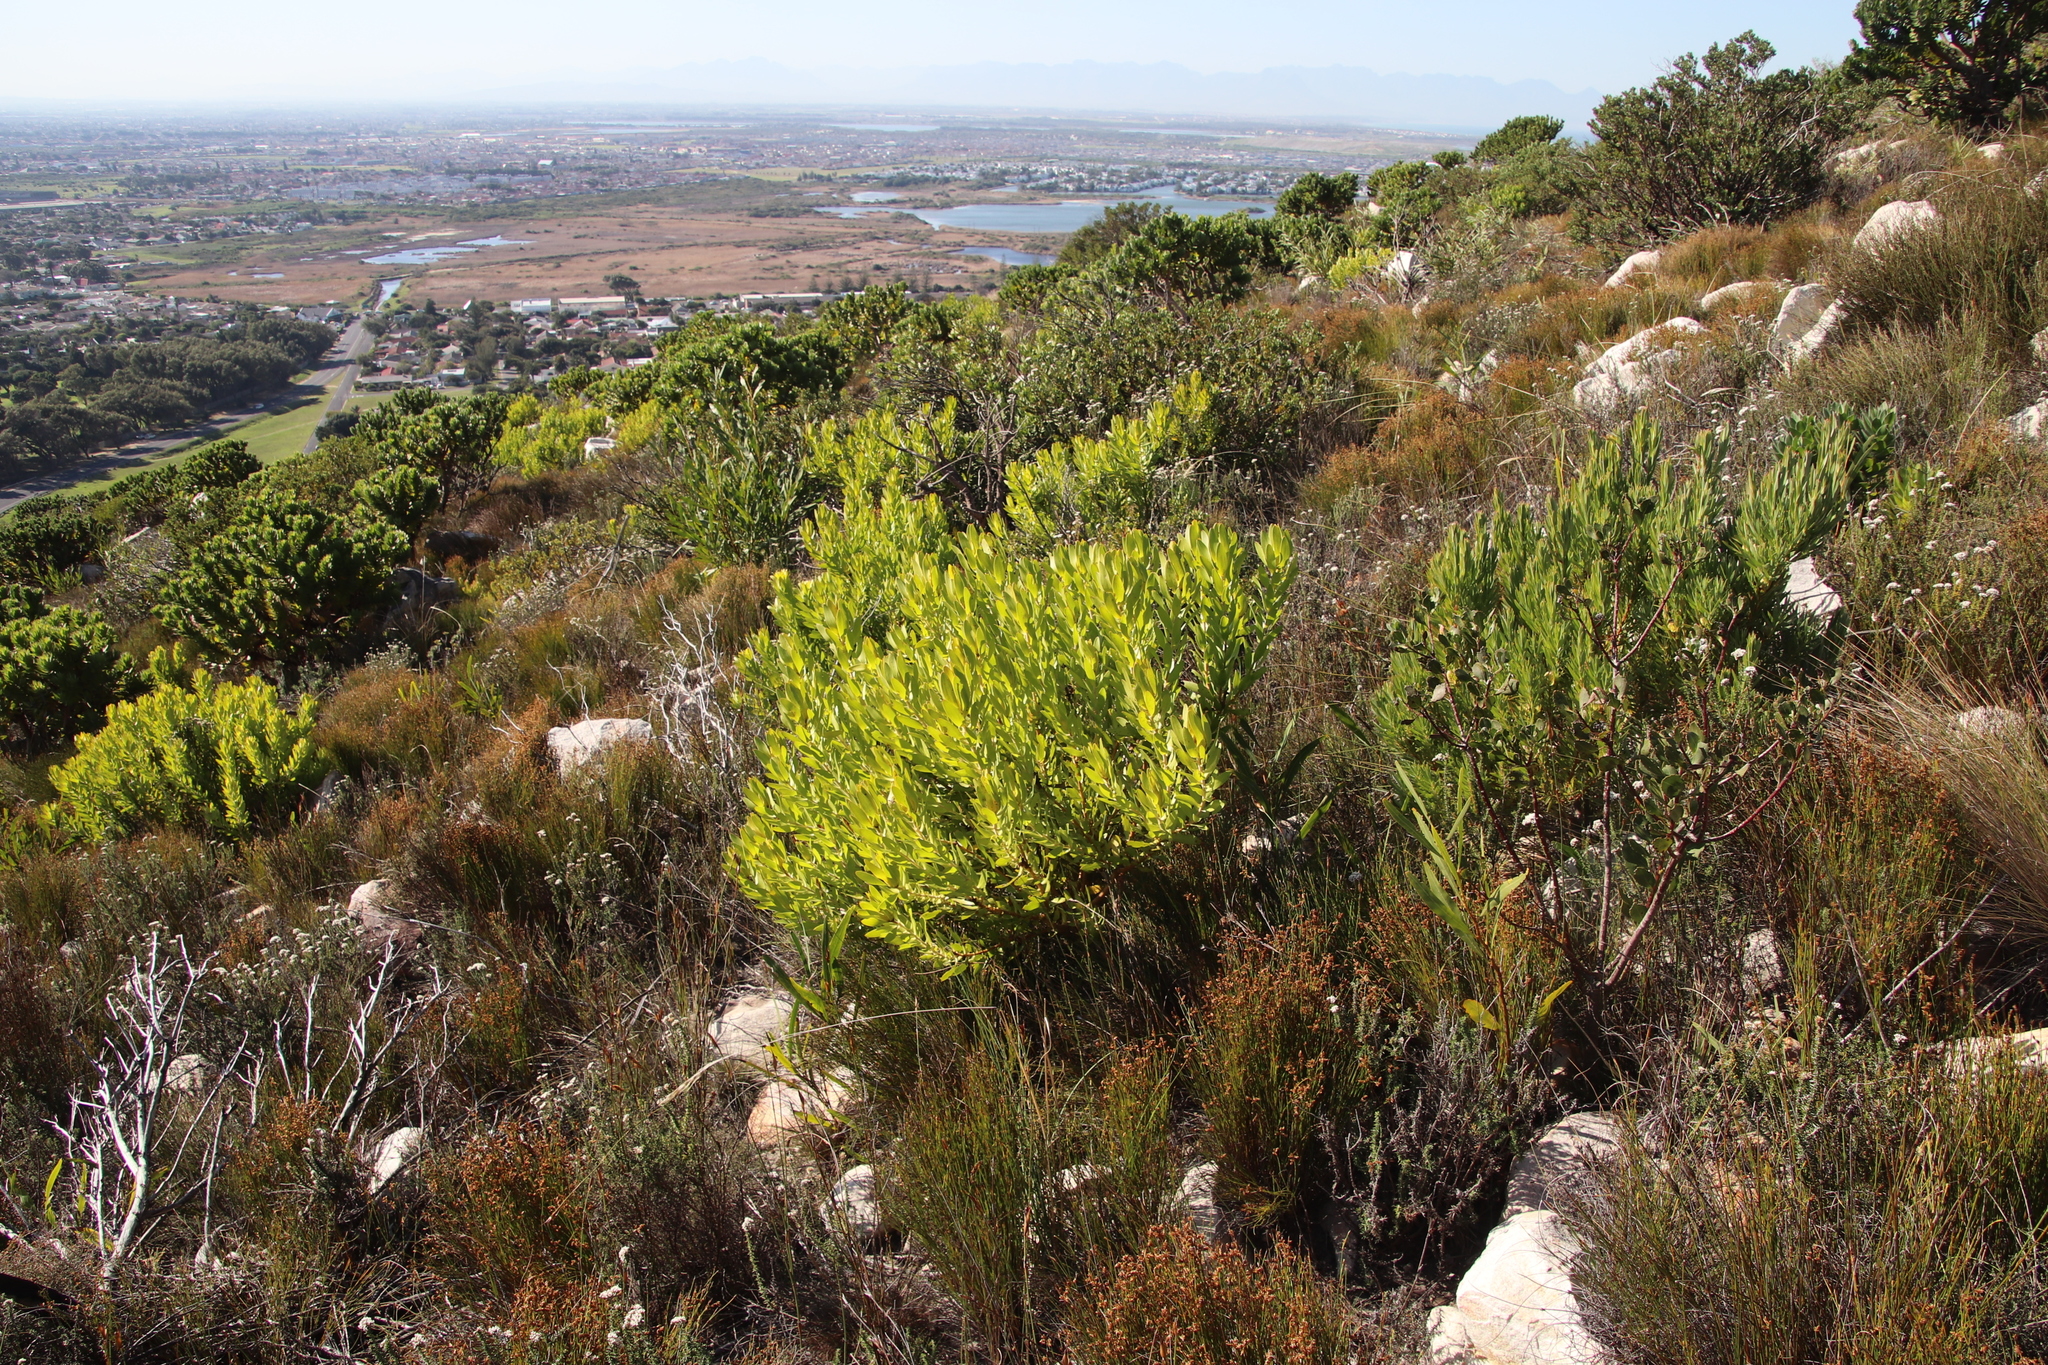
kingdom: Plantae
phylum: Tracheophyta
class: Magnoliopsida
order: Proteales
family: Proteaceae
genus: Leucadendron
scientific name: Leucadendron laureolum
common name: Golden sunshinebush
